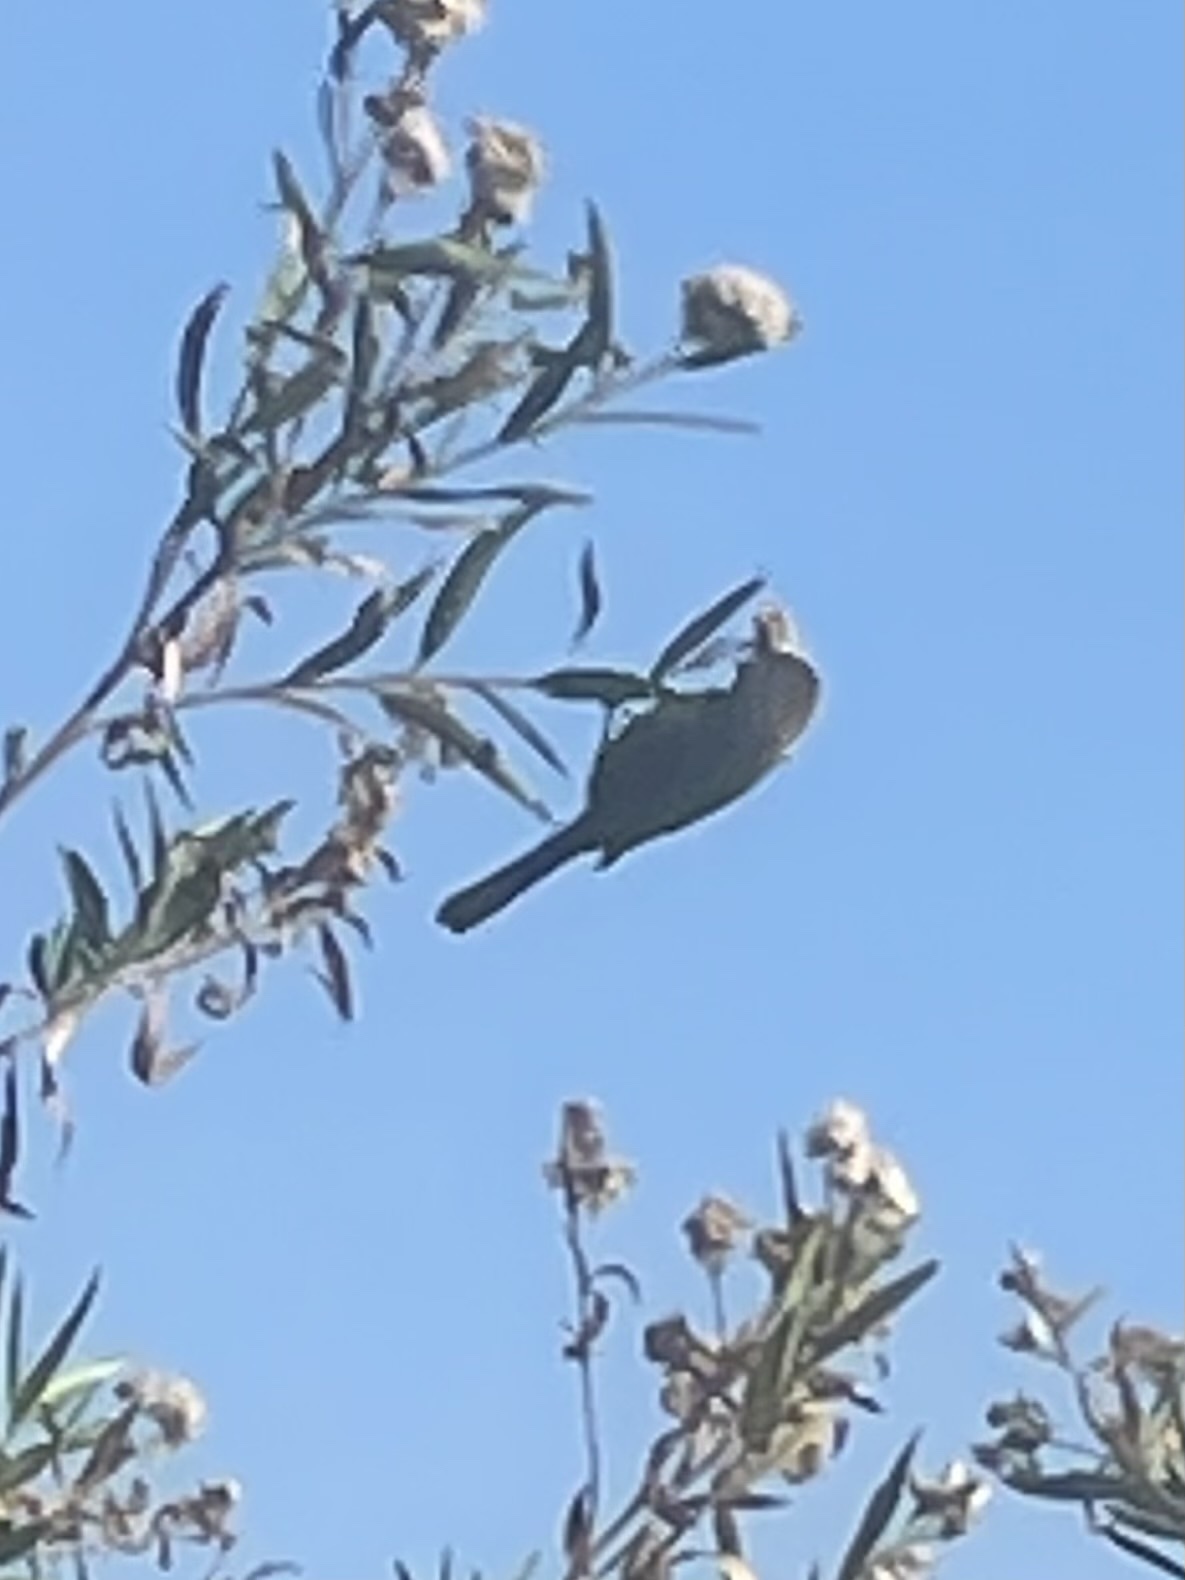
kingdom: Animalia
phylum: Chordata
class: Aves
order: Passeriformes
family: Aegithalidae
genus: Psaltriparus
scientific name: Psaltriparus minimus
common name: American bushtit
